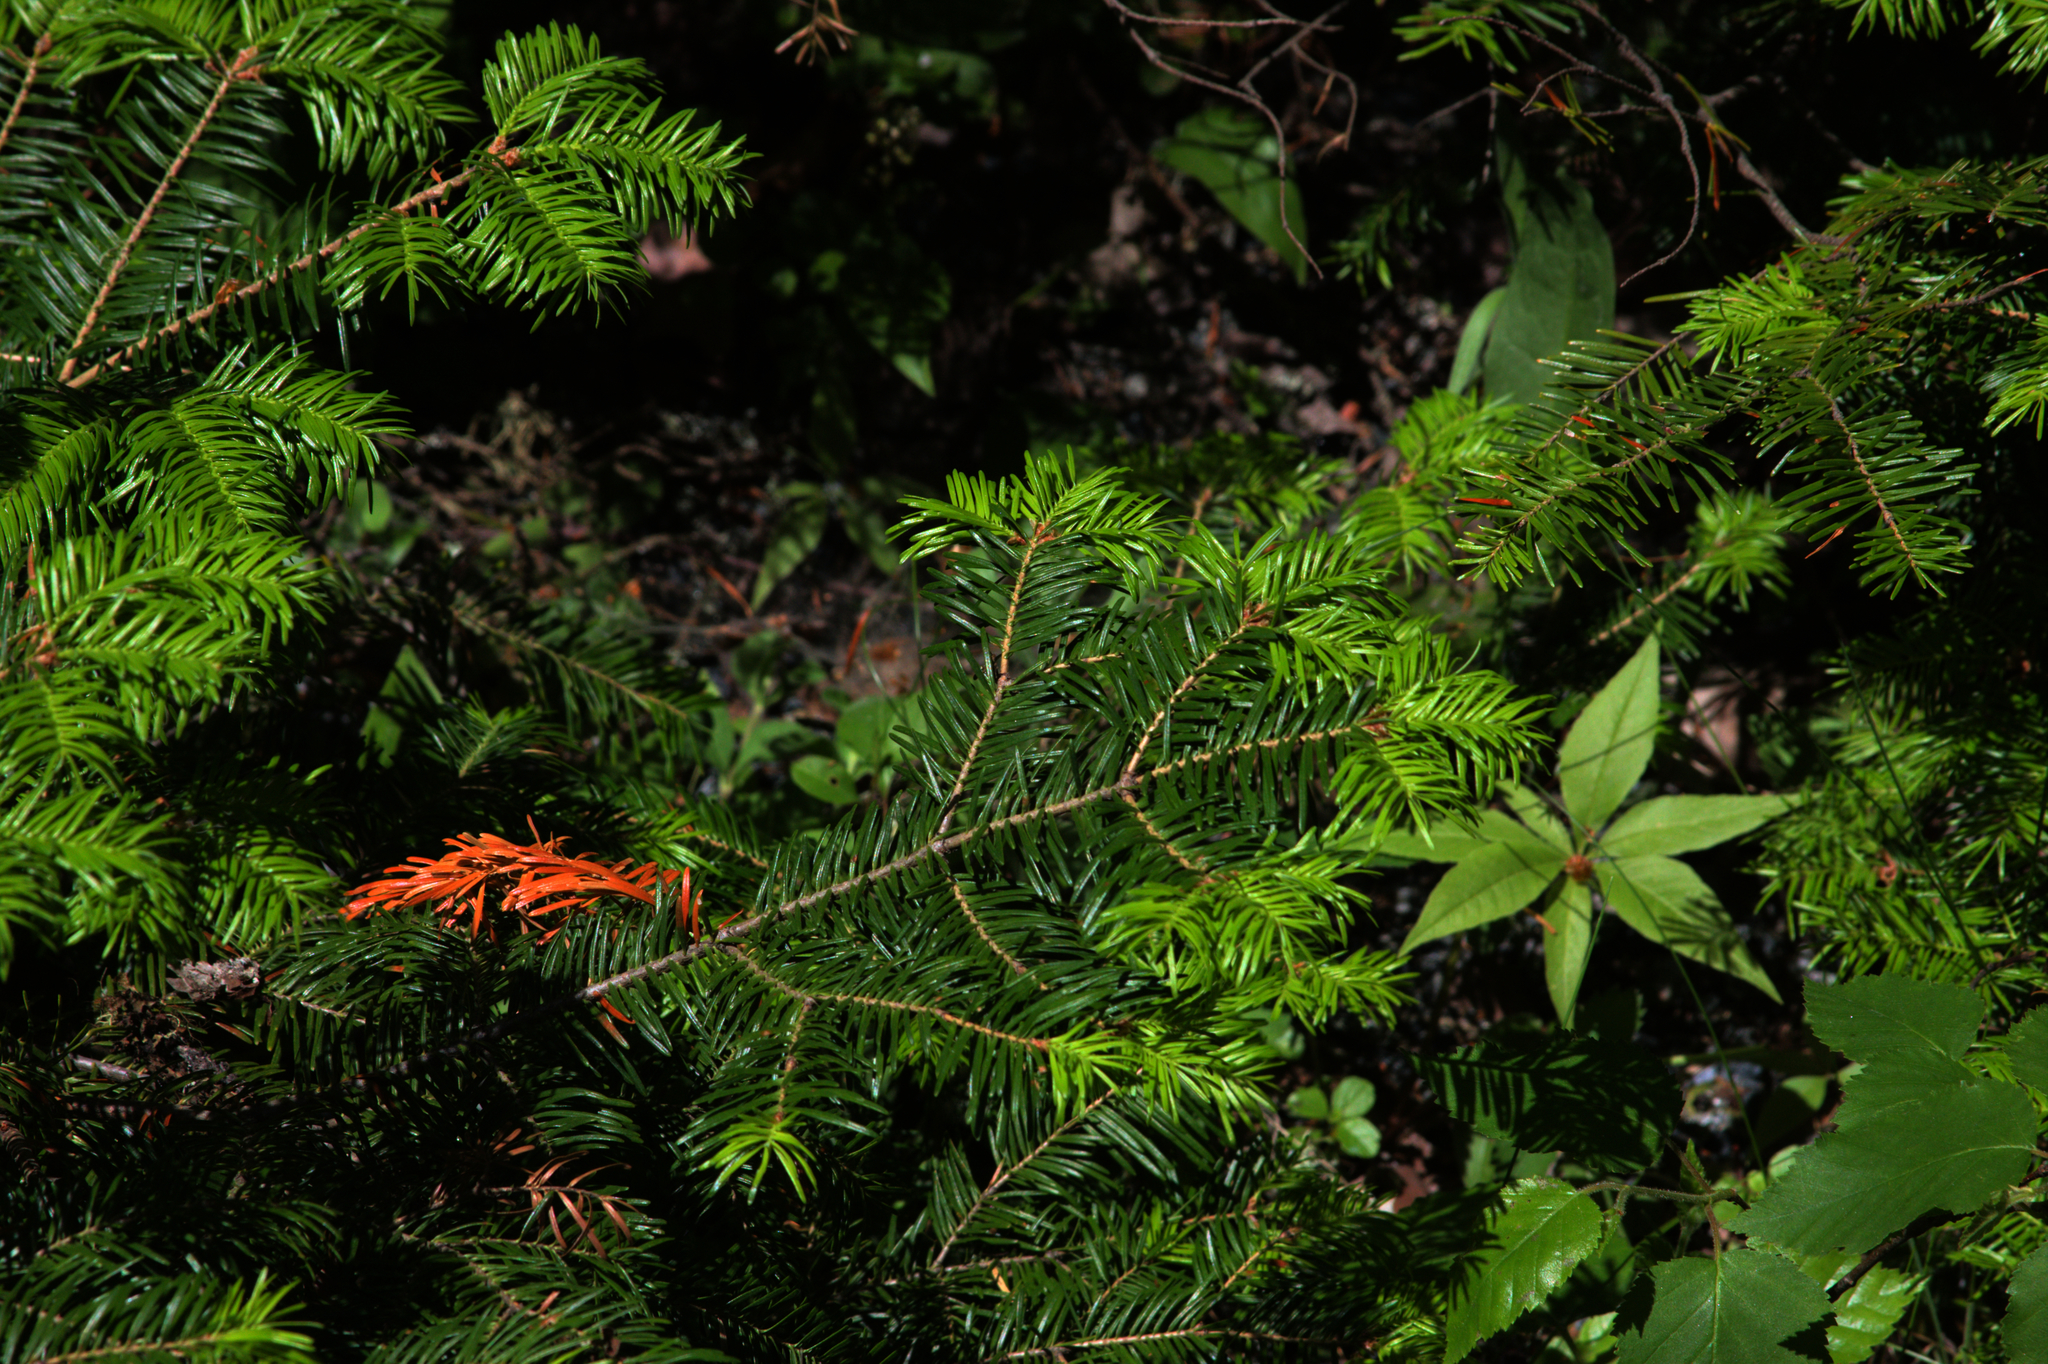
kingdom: Plantae
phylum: Tracheophyta
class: Pinopsida
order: Pinales
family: Pinaceae
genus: Abies
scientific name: Abies balsamea
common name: Balsam fir
